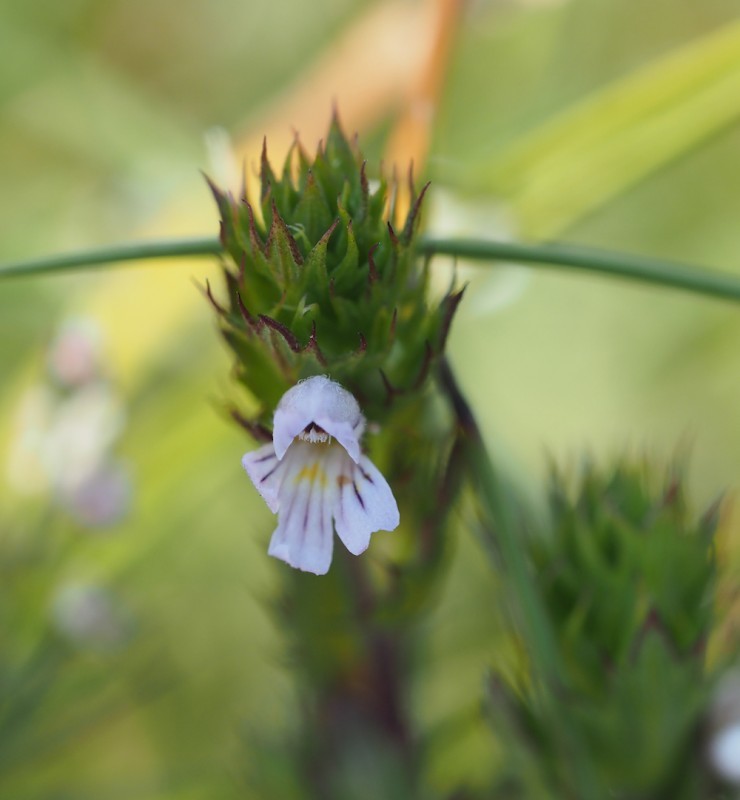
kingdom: Plantae
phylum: Tracheophyta
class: Magnoliopsida
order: Lamiales
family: Orobanchaceae
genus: Euphrasia
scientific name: Euphrasia stricta
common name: Drug eyebright
